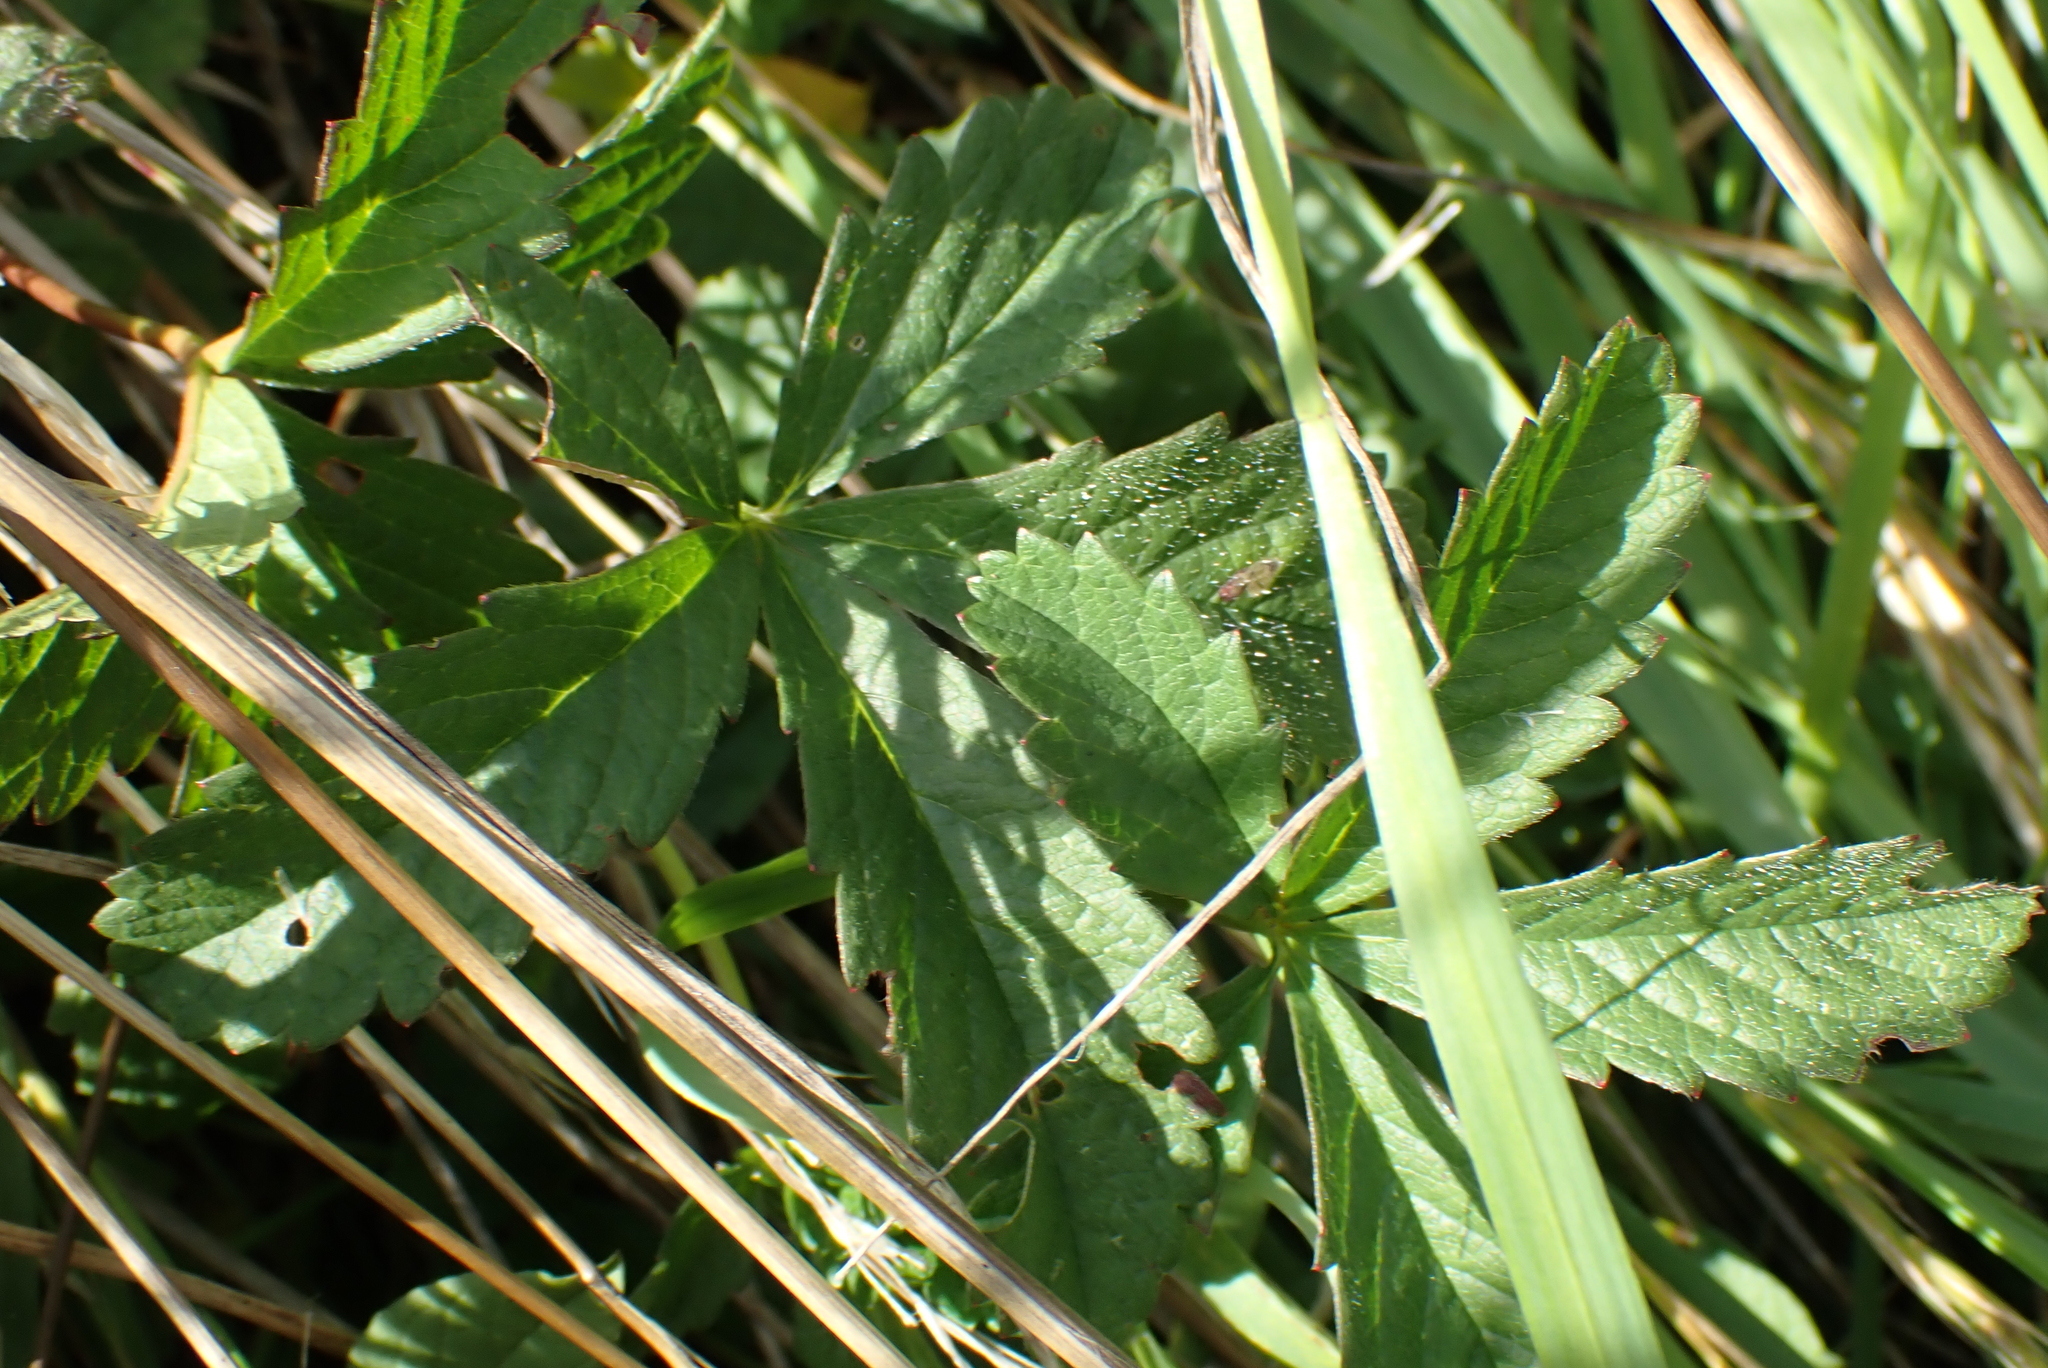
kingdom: Plantae
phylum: Tracheophyta
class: Magnoliopsida
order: Rosales
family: Rosaceae
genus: Potentilla
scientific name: Potentilla reptans
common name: Creeping cinquefoil
